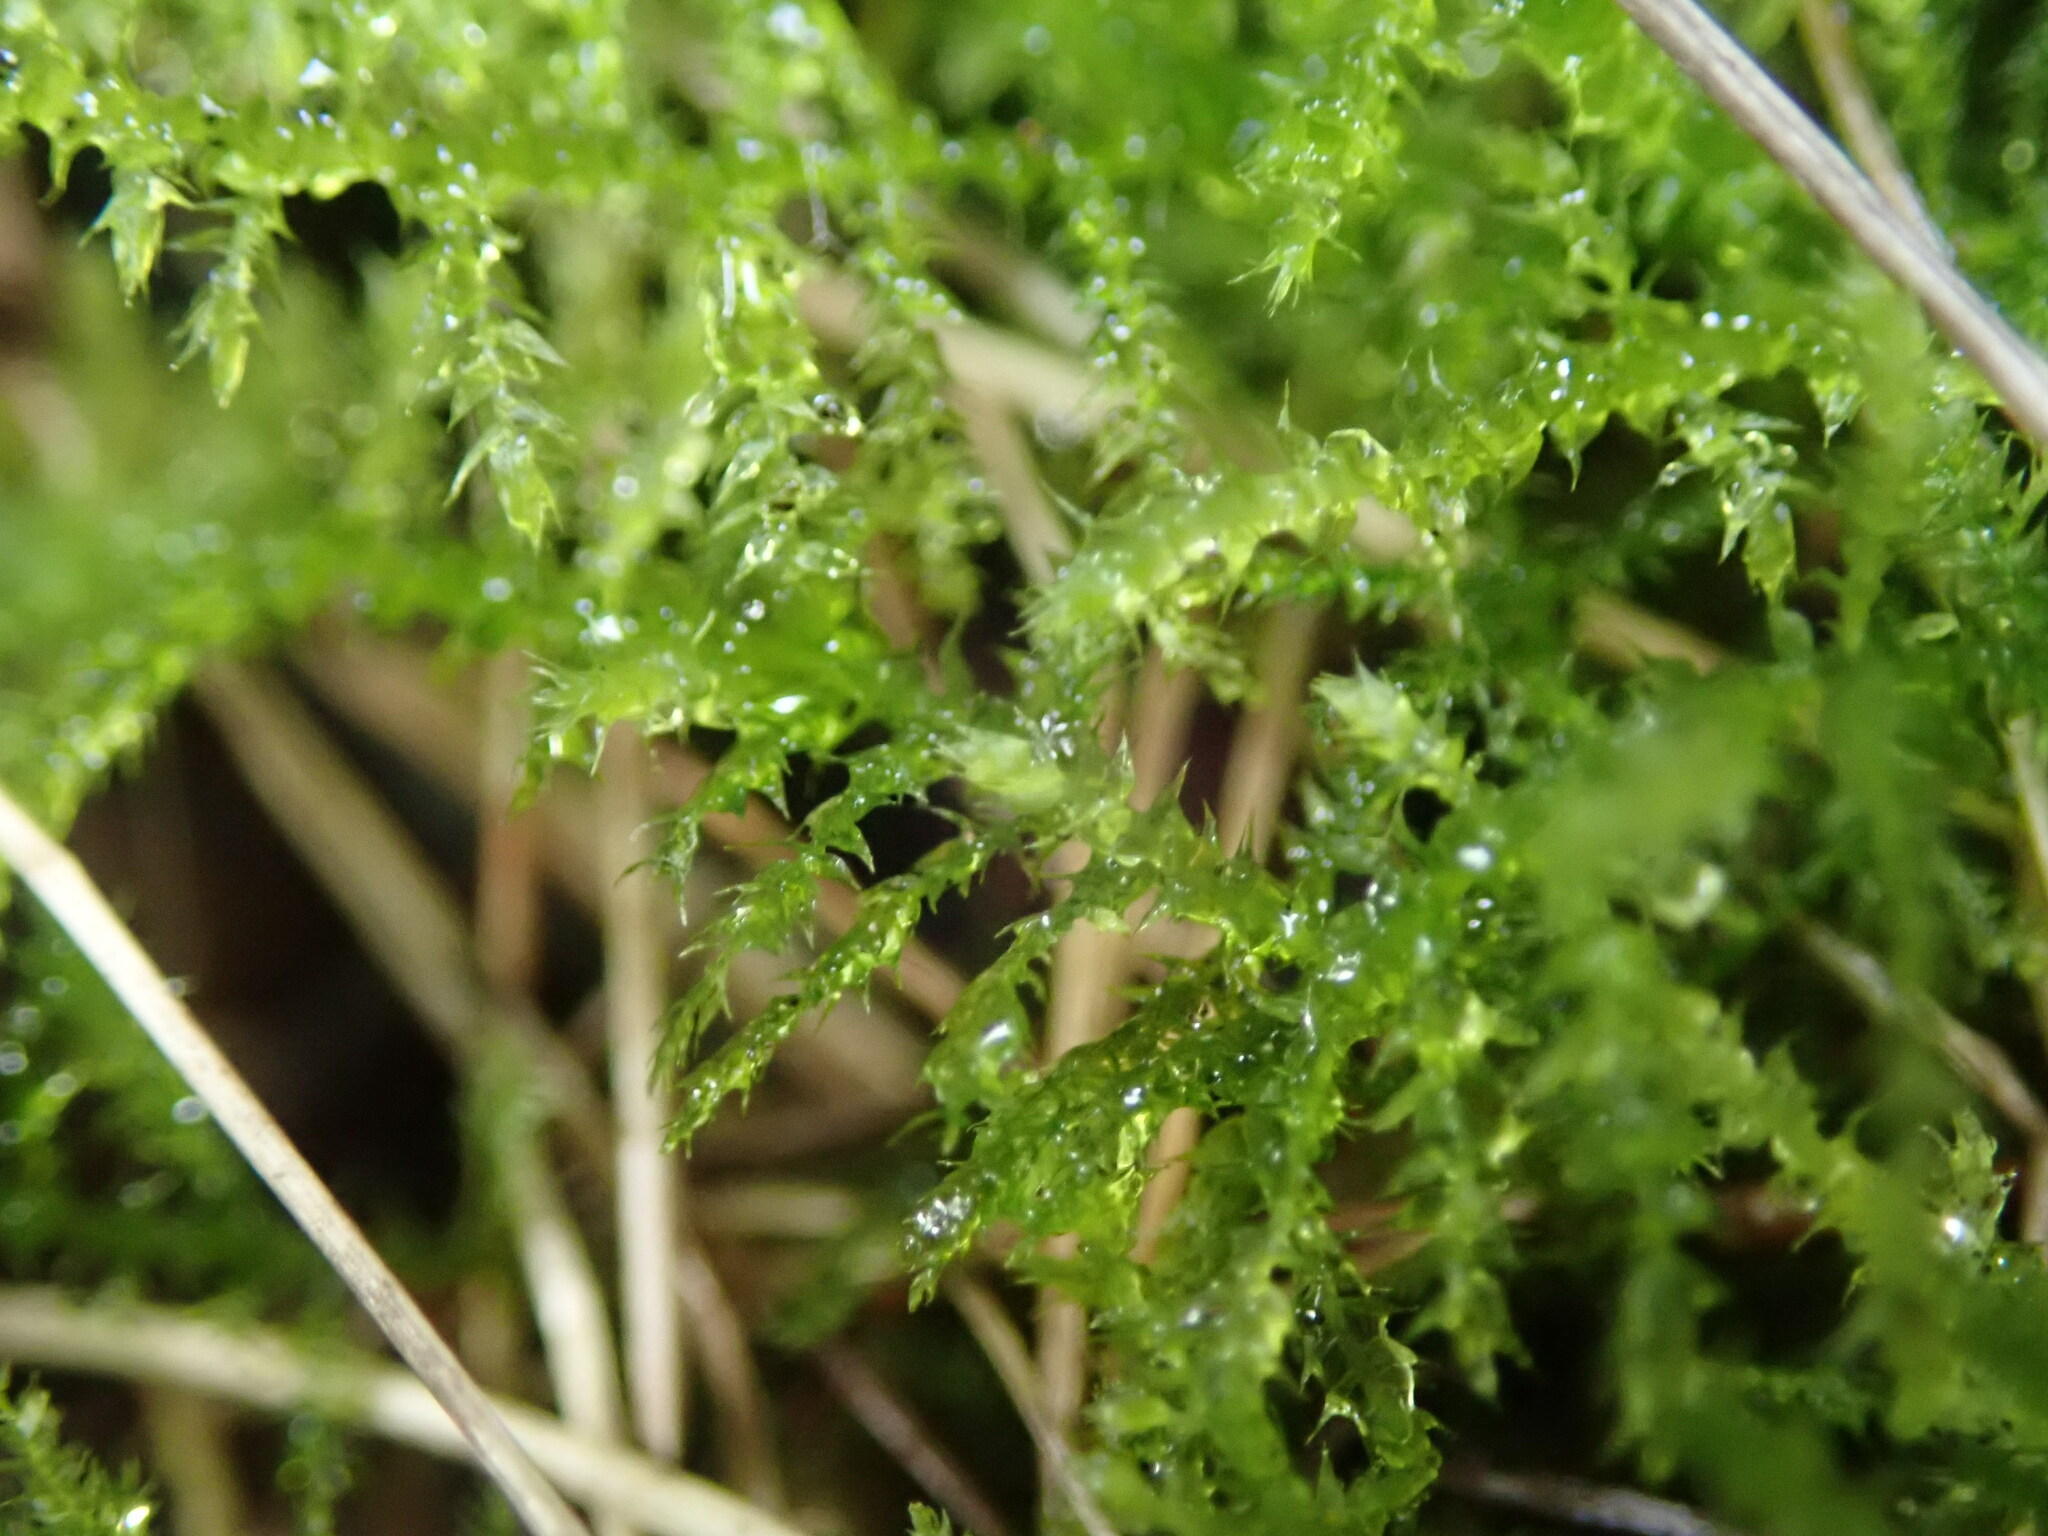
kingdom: Plantae
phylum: Bryophyta
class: Bryopsida
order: Hypnales
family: Brachytheciaceae
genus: Kindbergia
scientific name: Kindbergia praelonga
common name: Slender beaked moss
